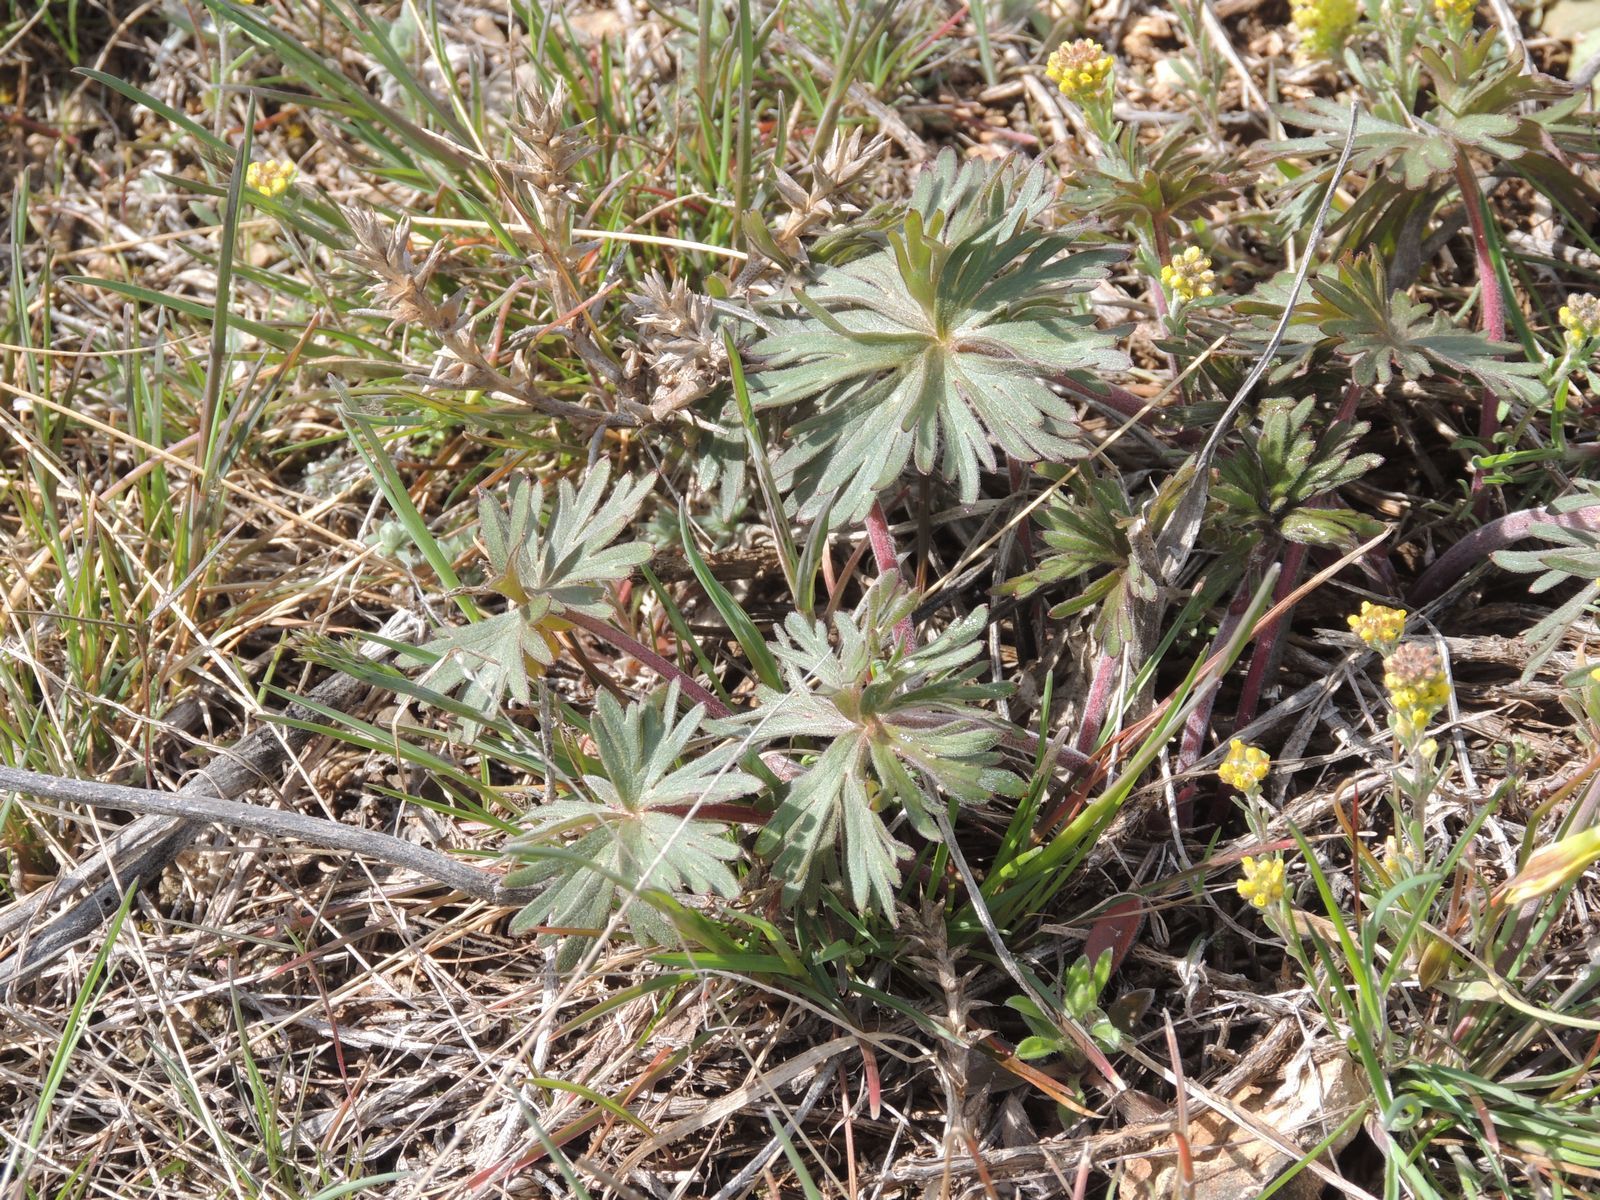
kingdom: Plantae
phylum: Tracheophyta
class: Magnoliopsida
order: Ranunculales
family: Ranunculaceae
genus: Delphinium
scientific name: Delphinium puniceum
